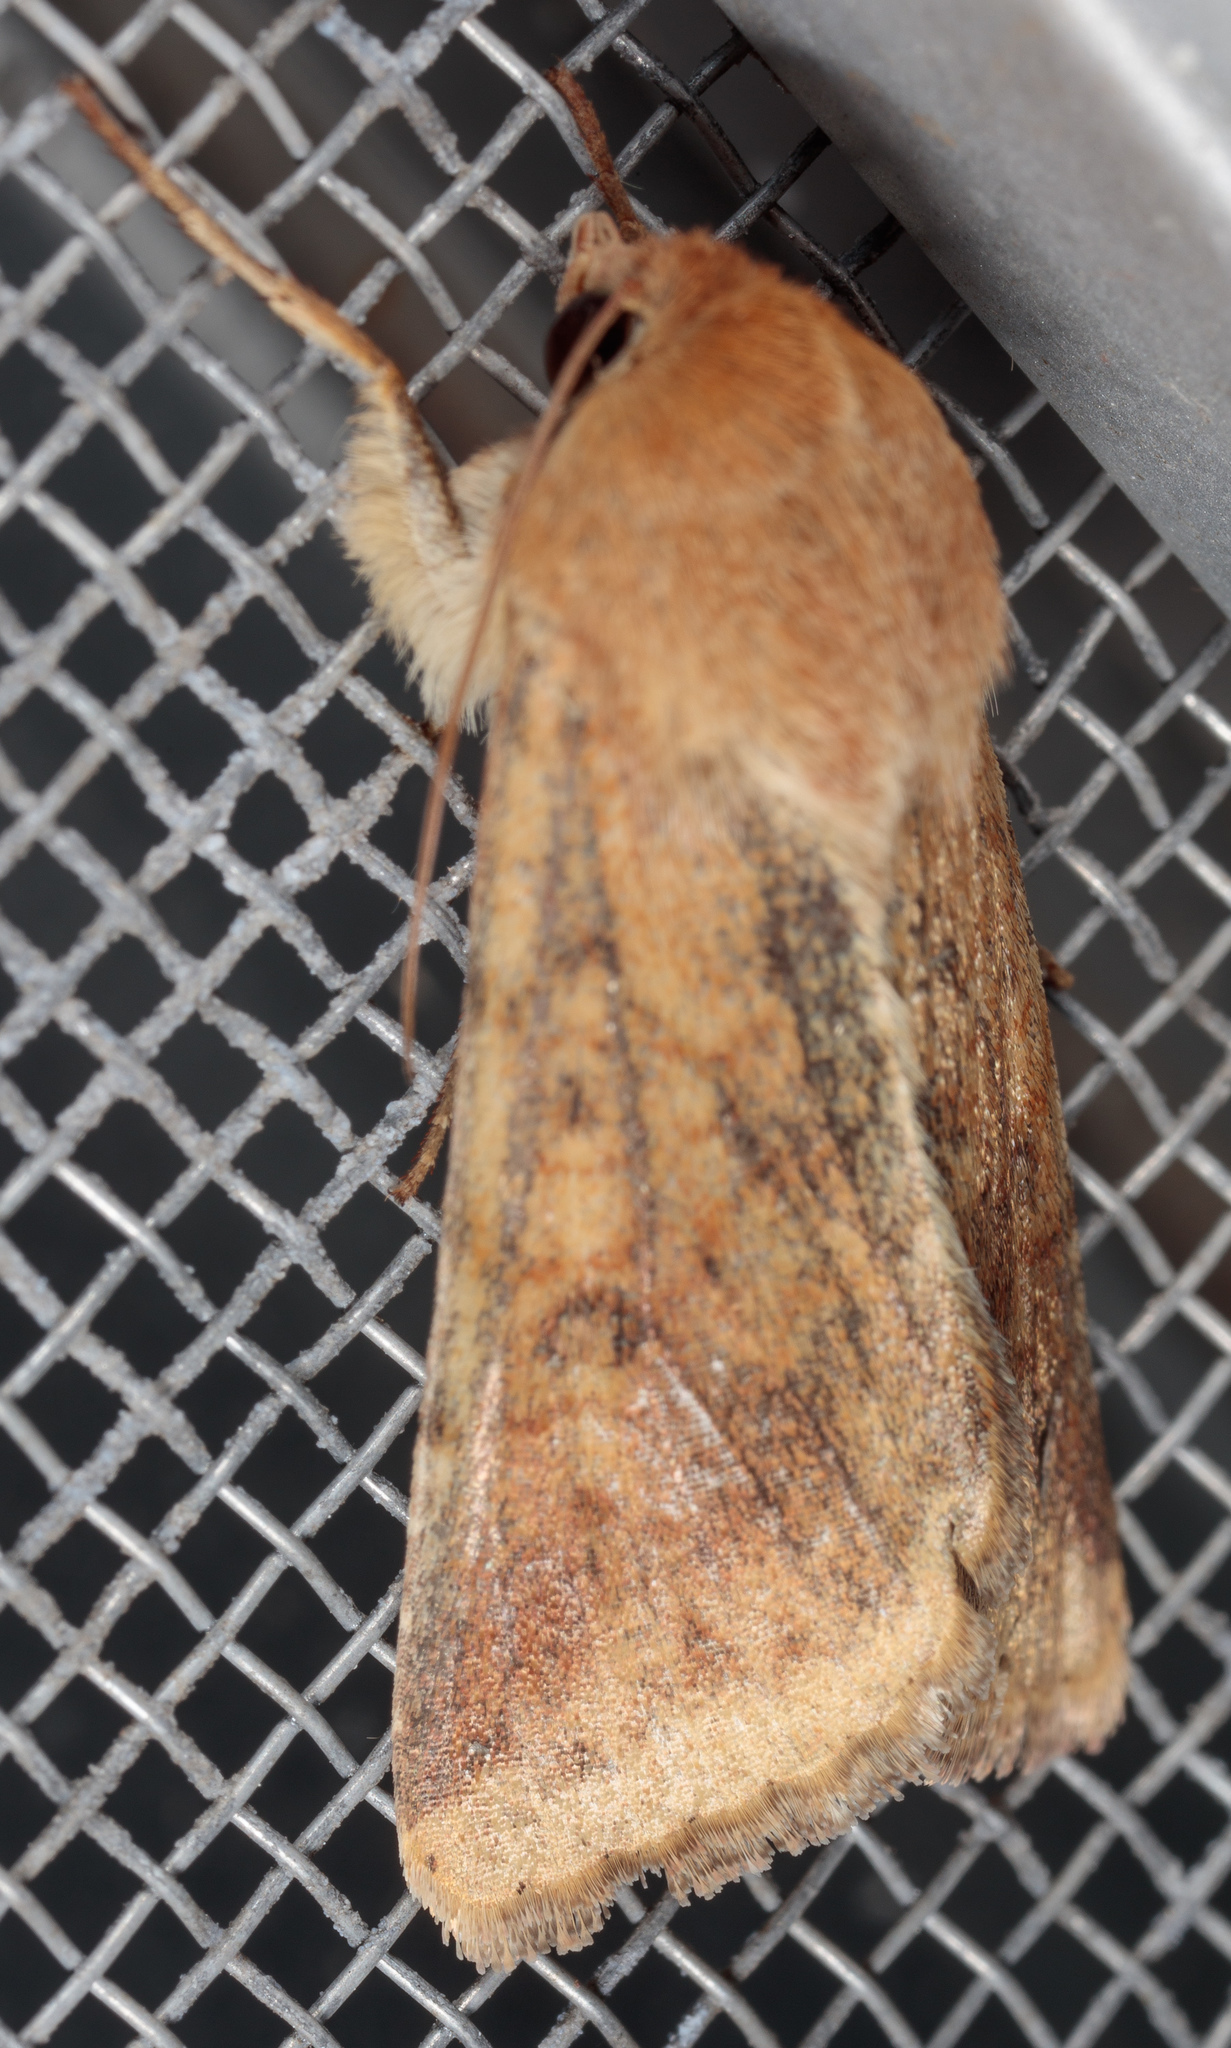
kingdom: Animalia
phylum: Arthropoda
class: Insecta
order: Lepidoptera
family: Noctuidae
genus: Helicoverpa
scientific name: Helicoverpa zea
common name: Bollworm
